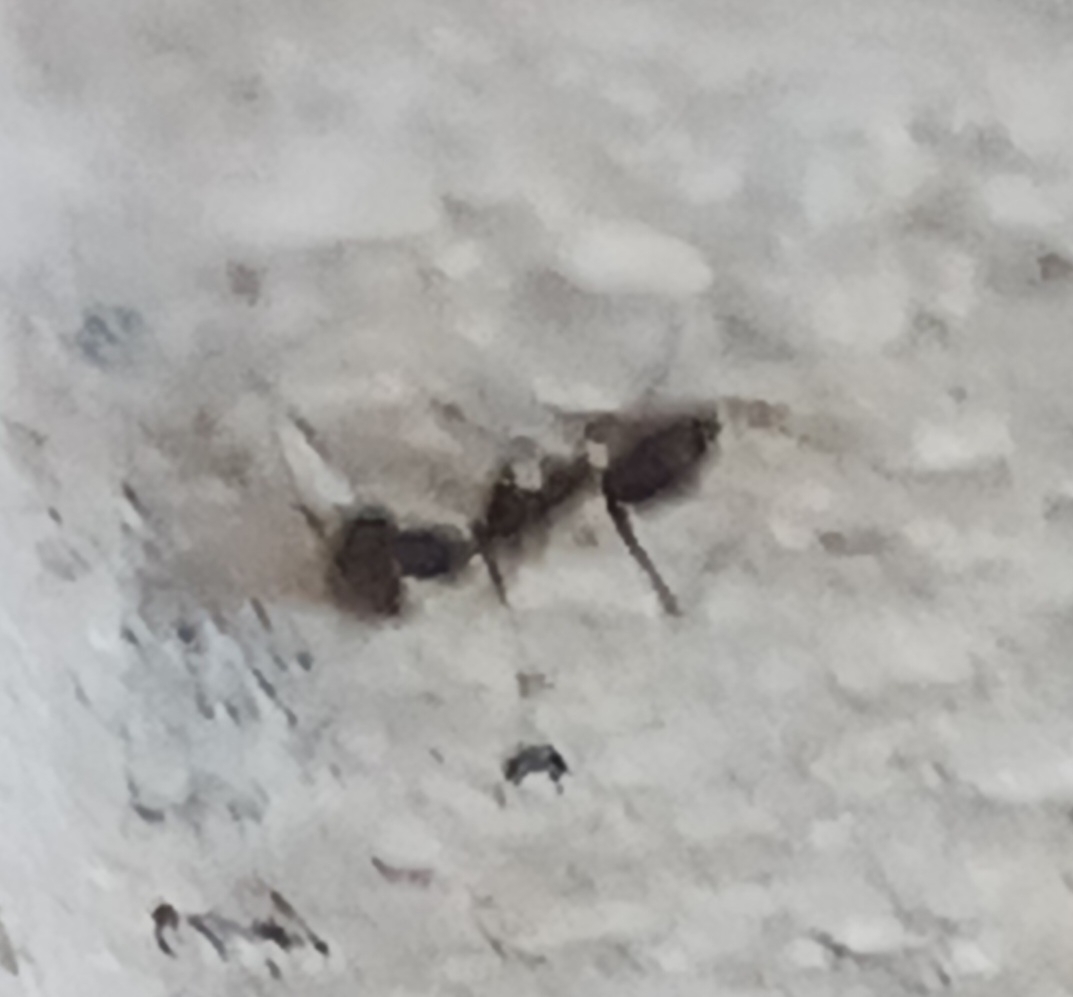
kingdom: Animalia
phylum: Arthropoda
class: Insecta
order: Hymenoptera
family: Formicidae
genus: Paratrechina
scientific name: Paratrechina longicornis
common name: Longhorned crazy ant
